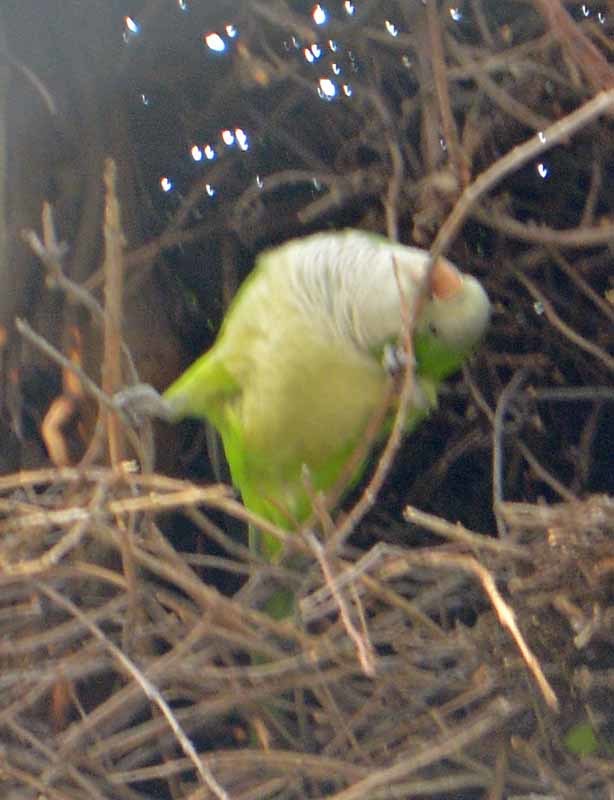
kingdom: Animalia
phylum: Chordata
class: Aves
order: Psittaciformes
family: Psittacidae
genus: Myiopsitta
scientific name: Myiopsitta monachus
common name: Monk parakeet
